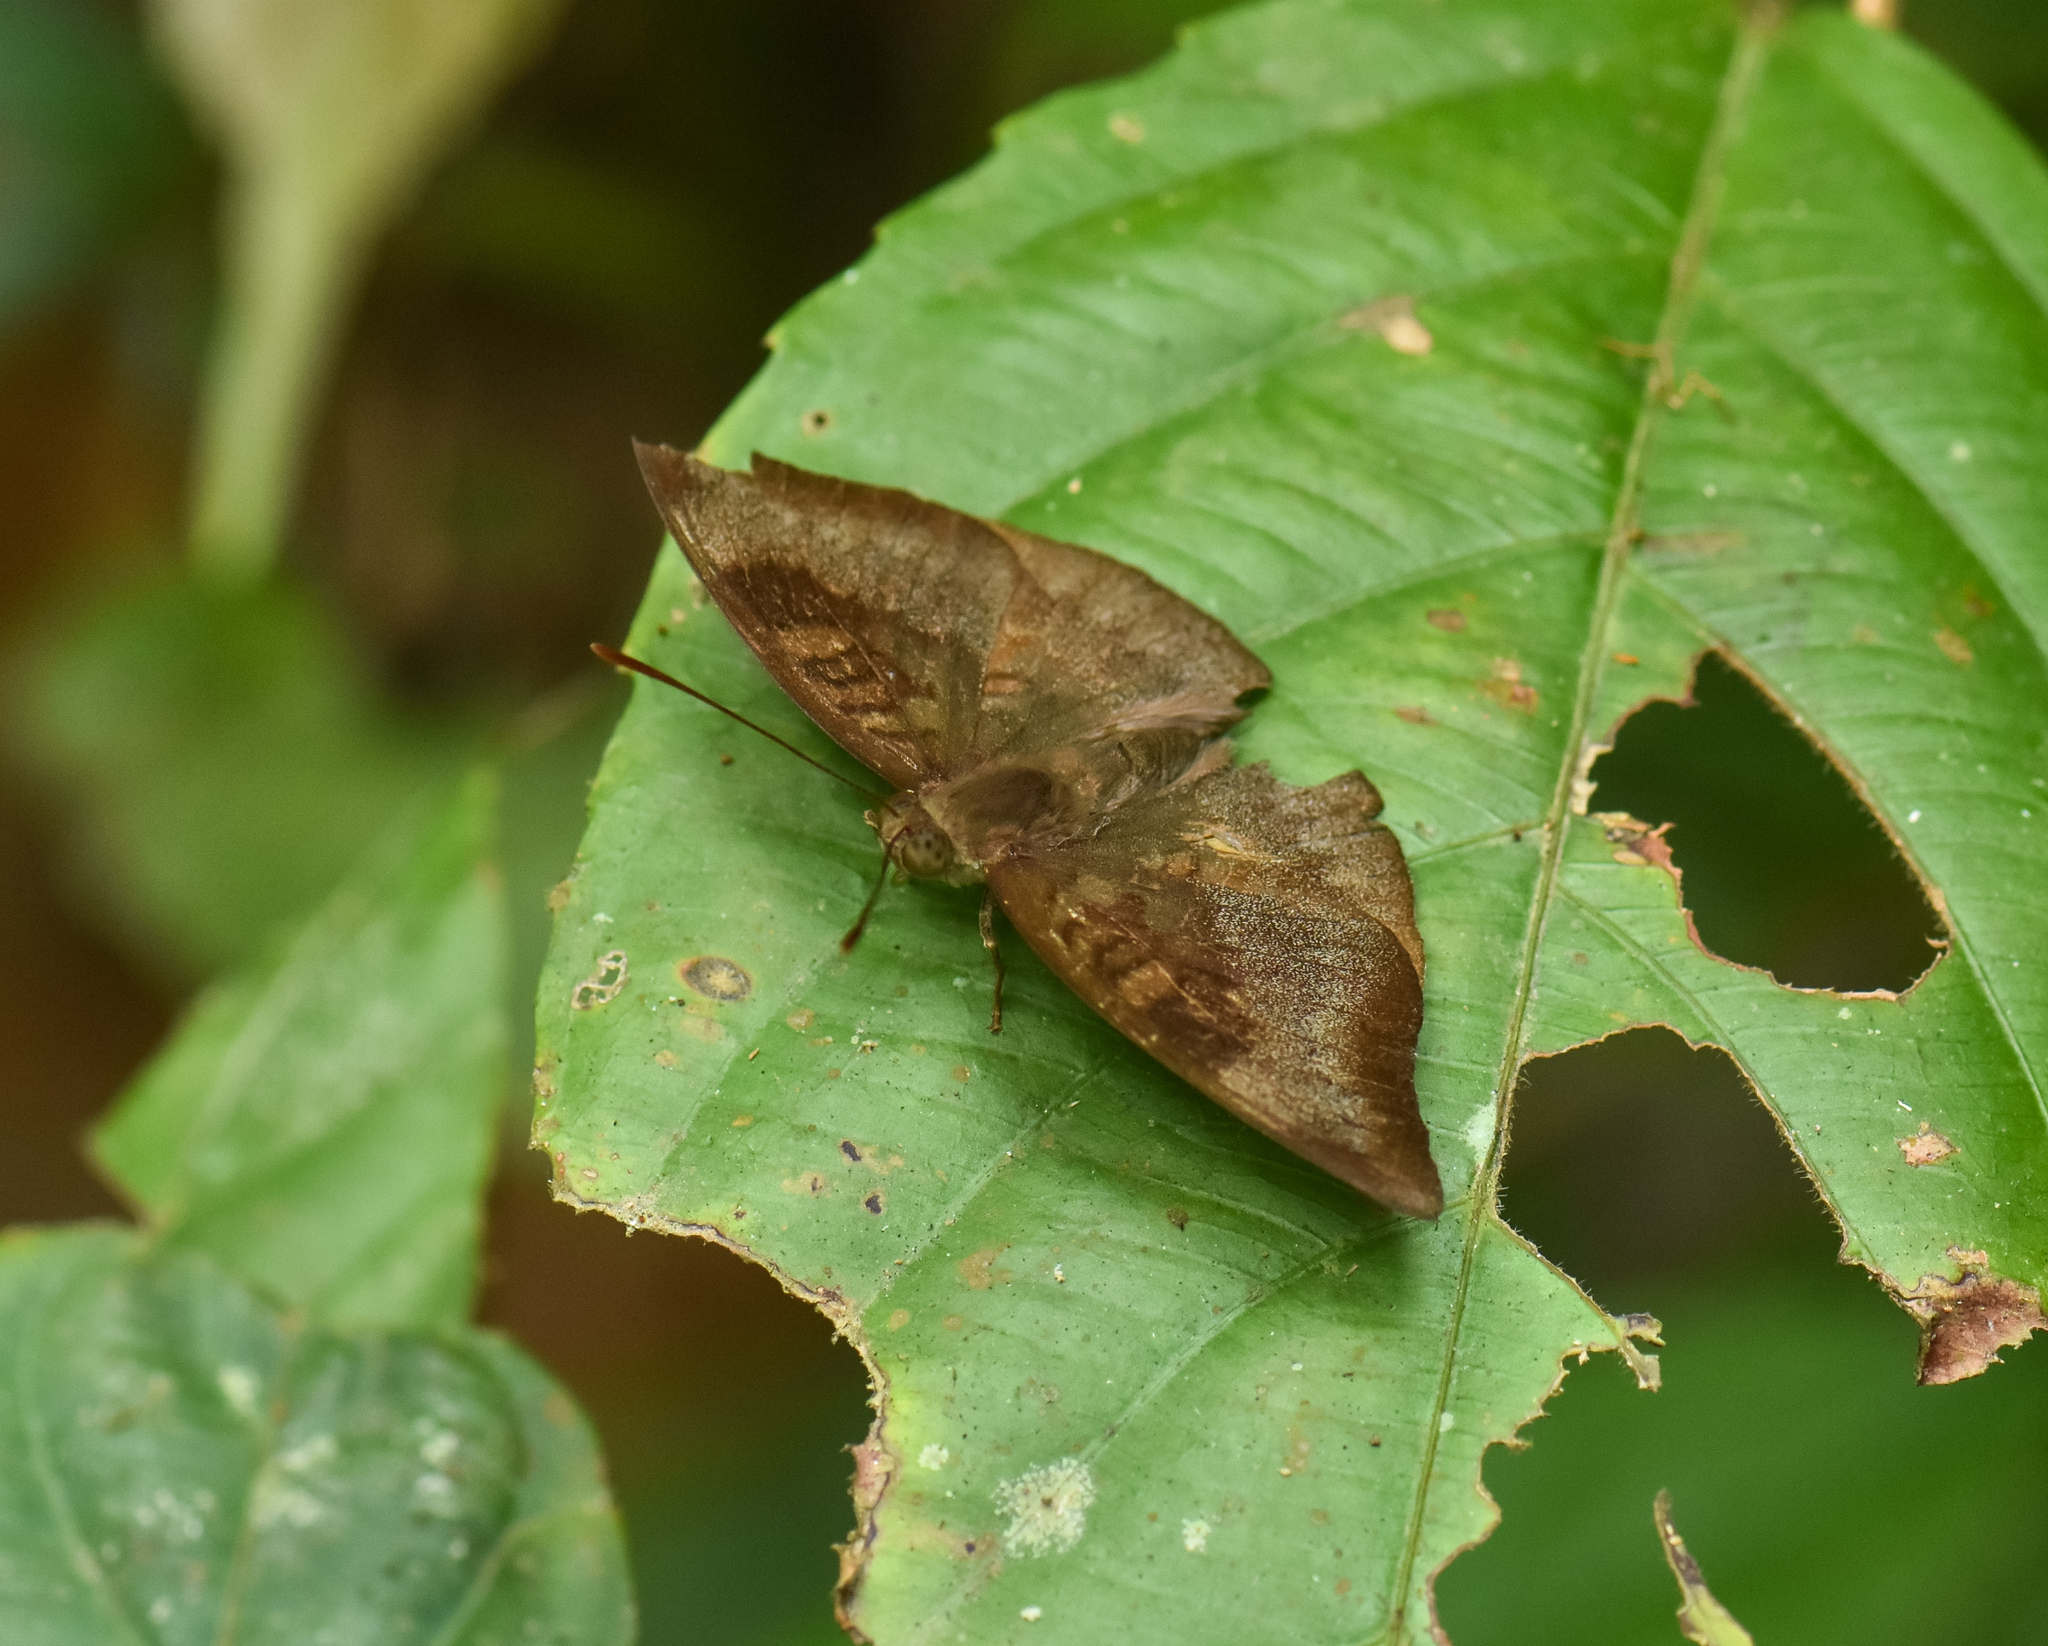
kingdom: Animalia
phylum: Arthropoda
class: Insecta
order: Lepidoptera
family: Nymphalidae
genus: Euthalia
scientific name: Euthalia monina
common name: Powdered baron
